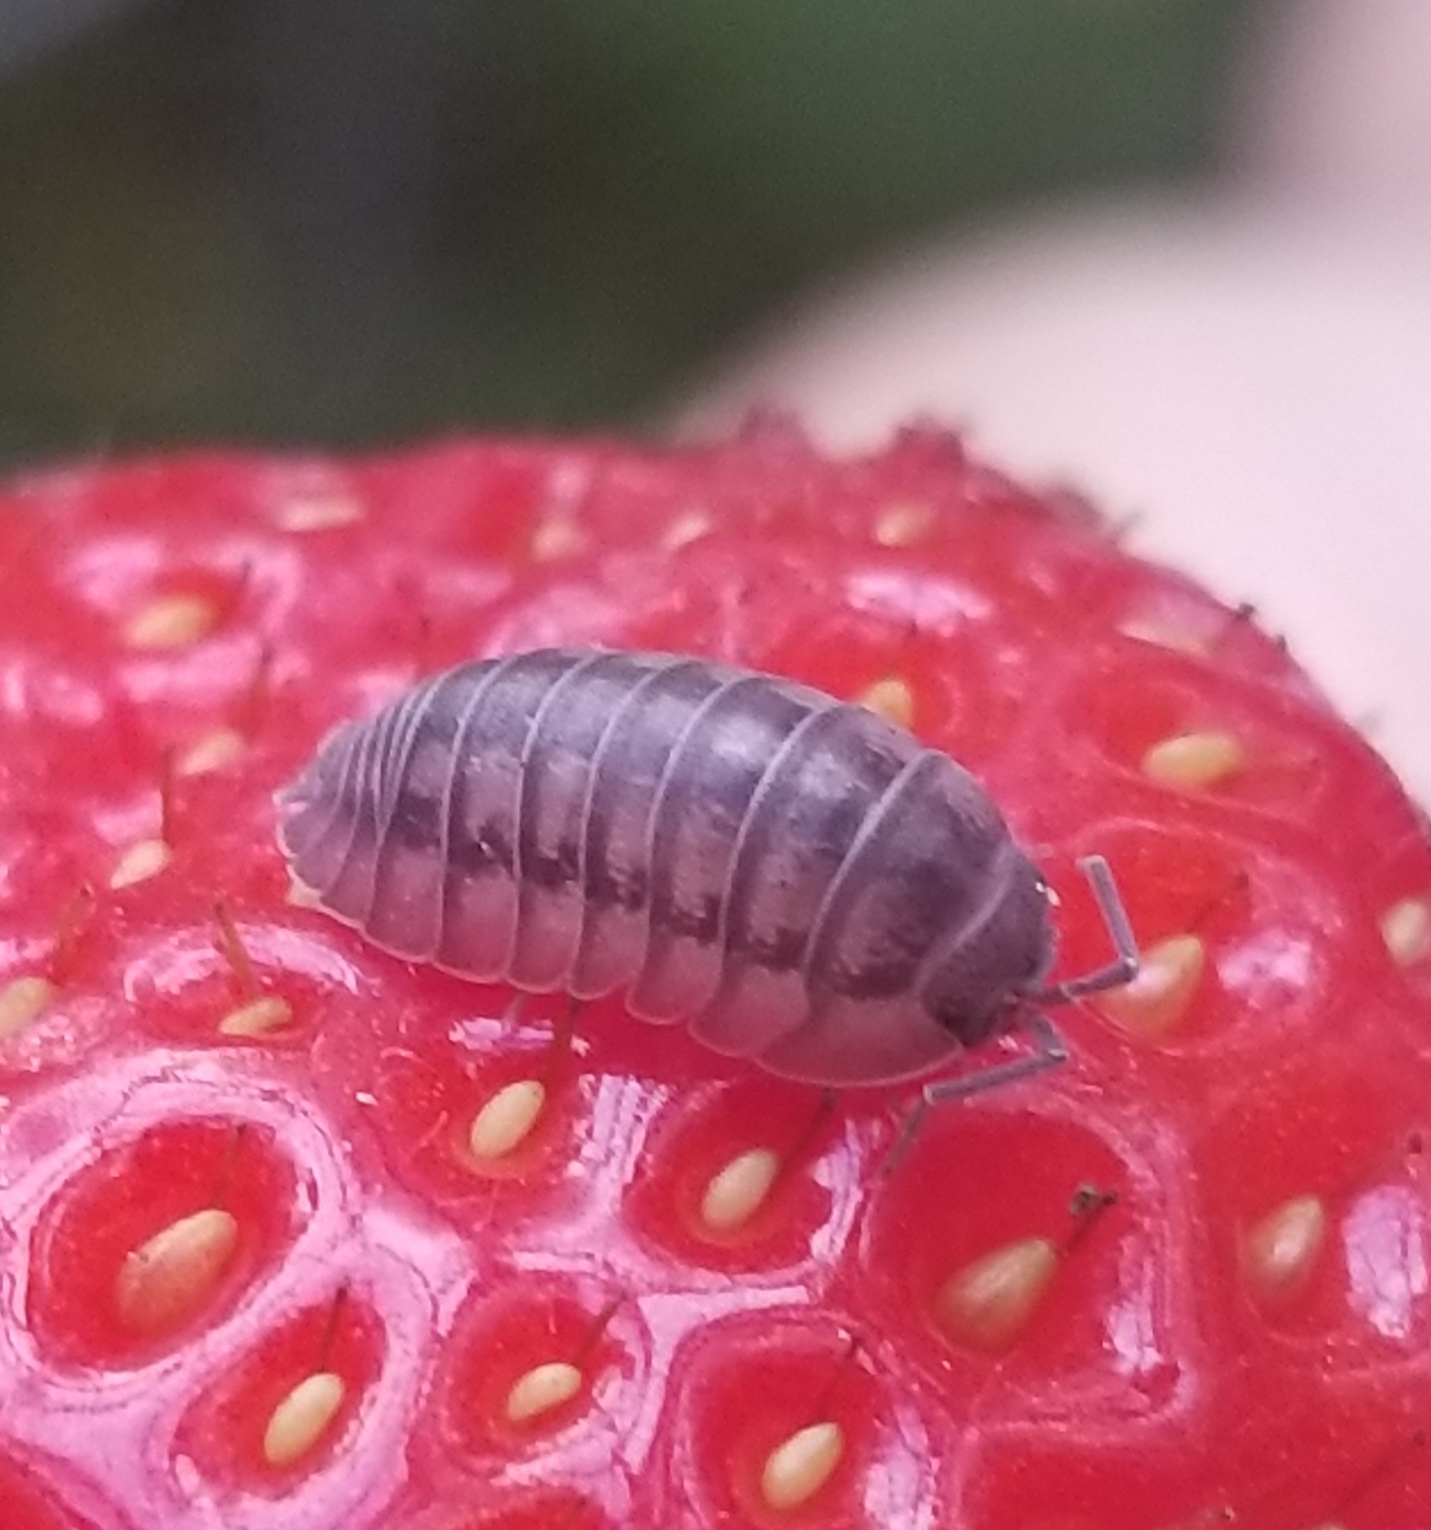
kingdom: Animalia
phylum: Arthropoda
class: Malacostraca
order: Isopoda
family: Armadillidiidae
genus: Armadillidium
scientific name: Armadillidium nasatum
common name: Isopod
